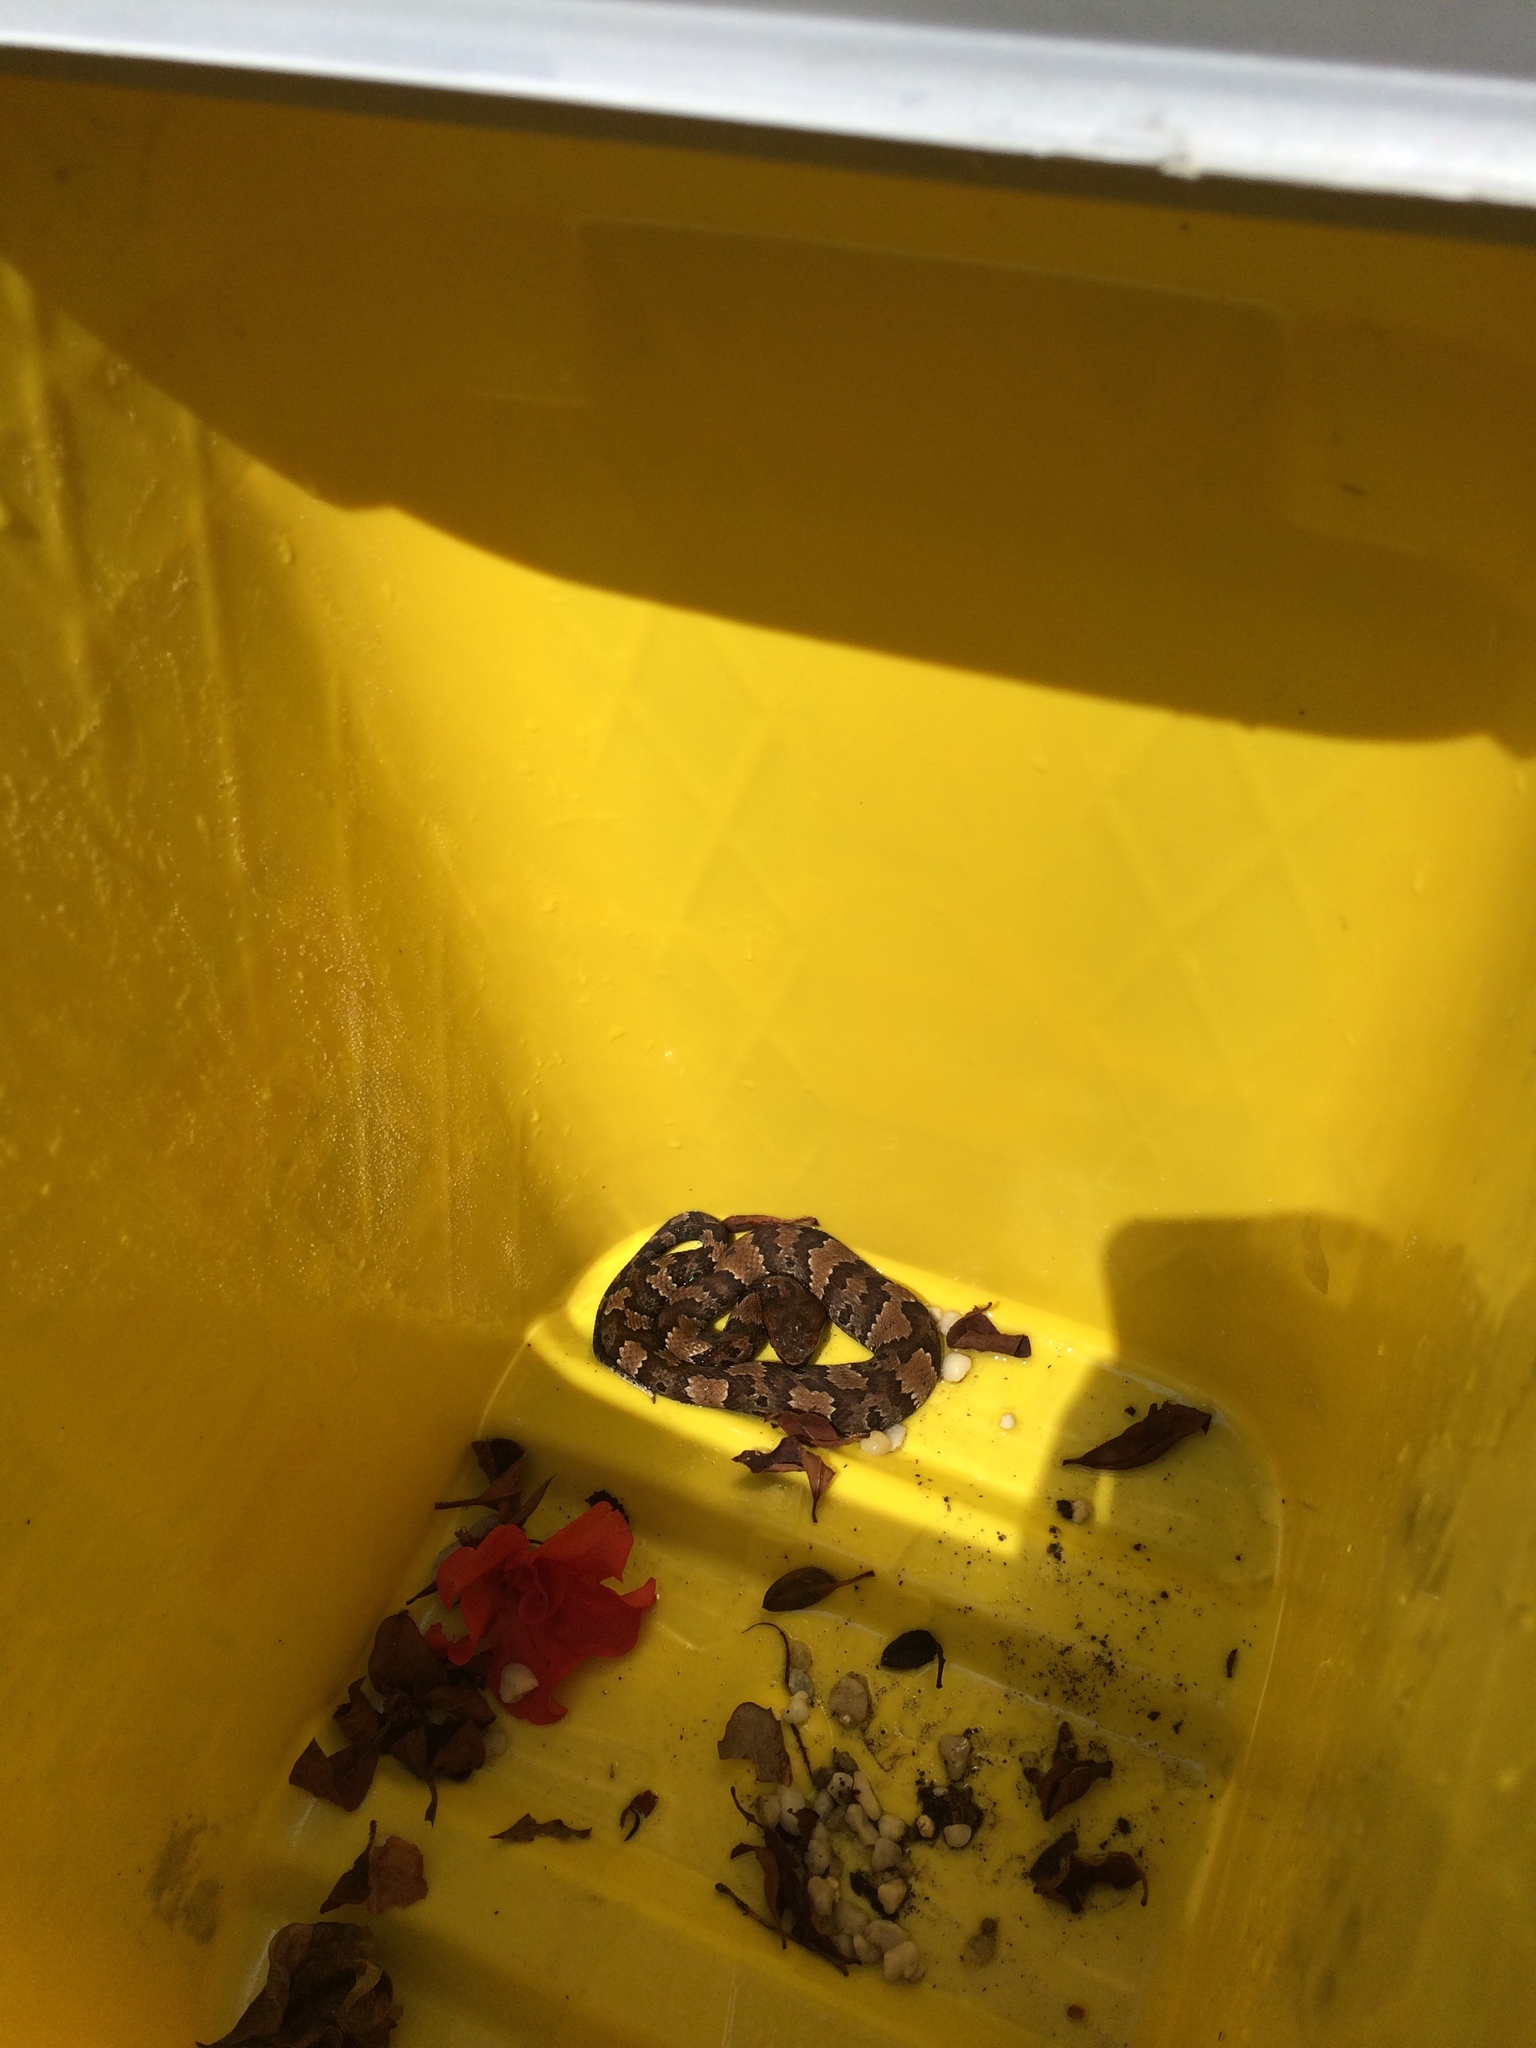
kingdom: Animalia
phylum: Chordata
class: Squamata
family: Viperidae
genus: Agkistrodon
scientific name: Agkistrodon piscivorus
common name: Cottonmouth
